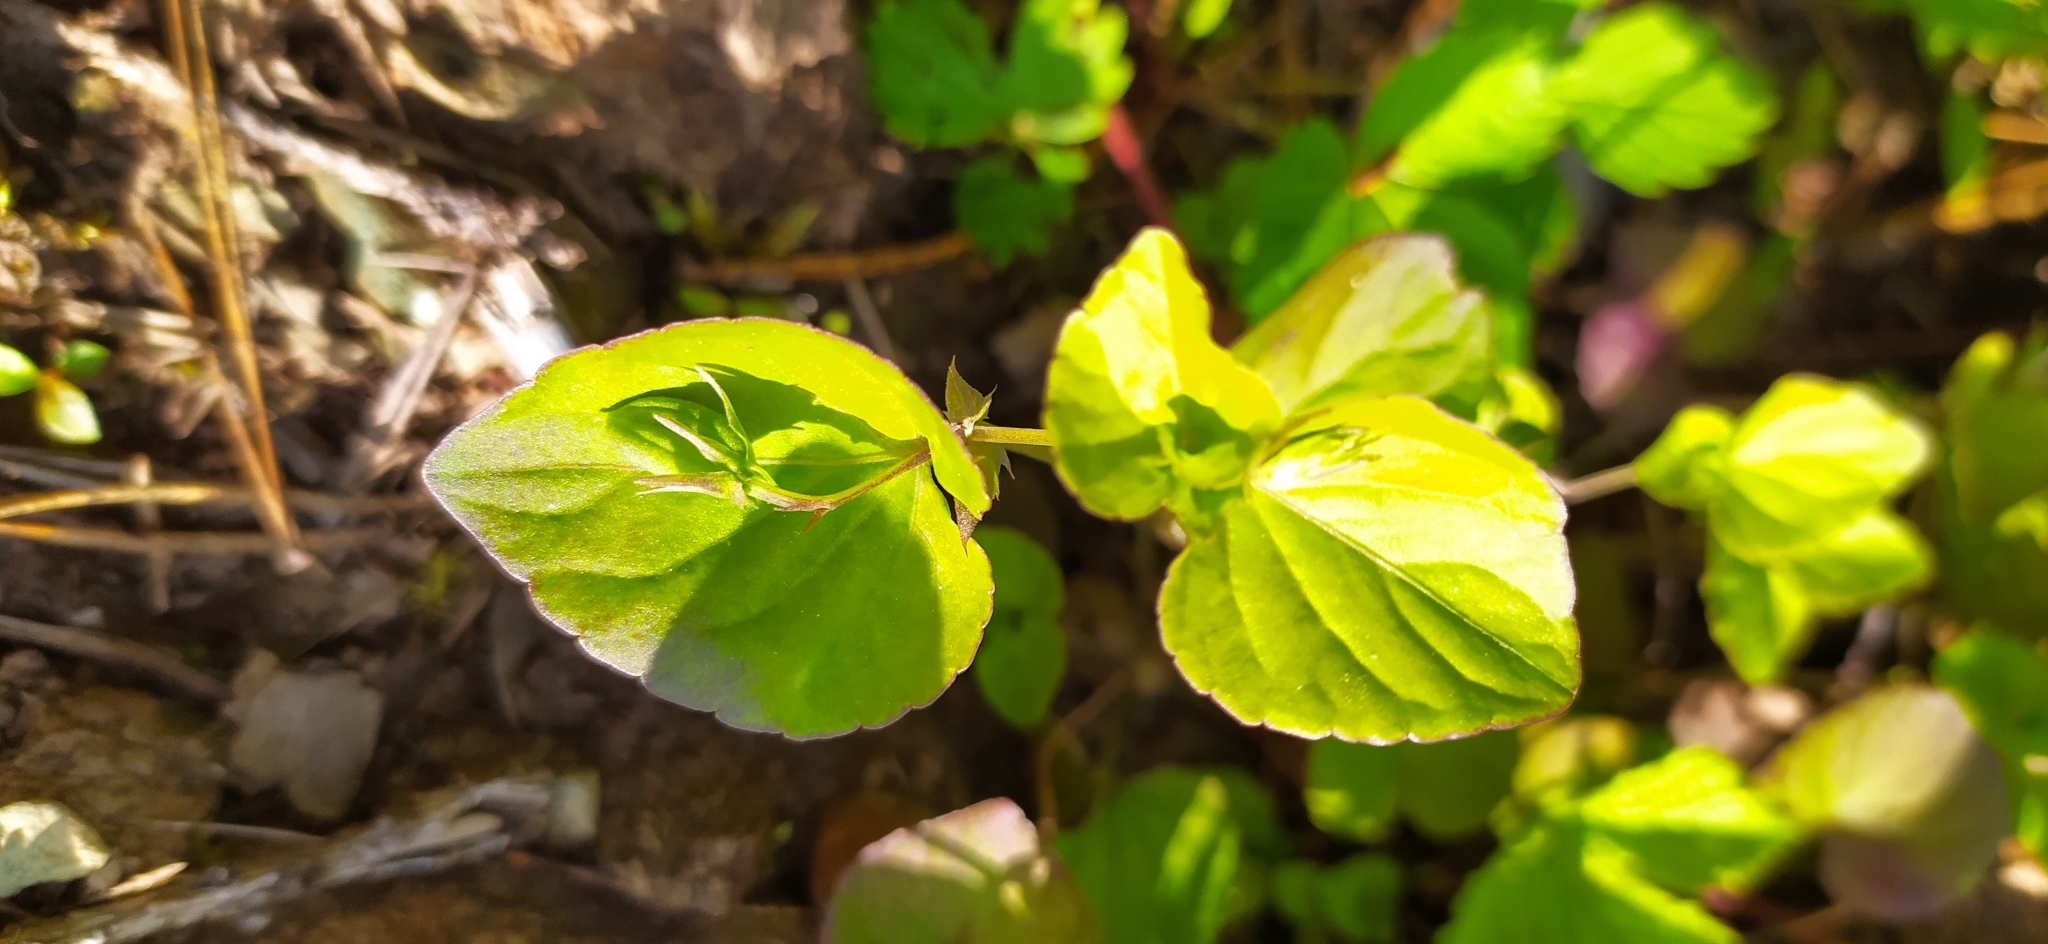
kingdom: Plantae
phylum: Tracheophyta
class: Magnoliopsida
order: Malpighiales
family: Violaceae
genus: Viola
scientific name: Viola rupestris
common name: Teesdale violet
